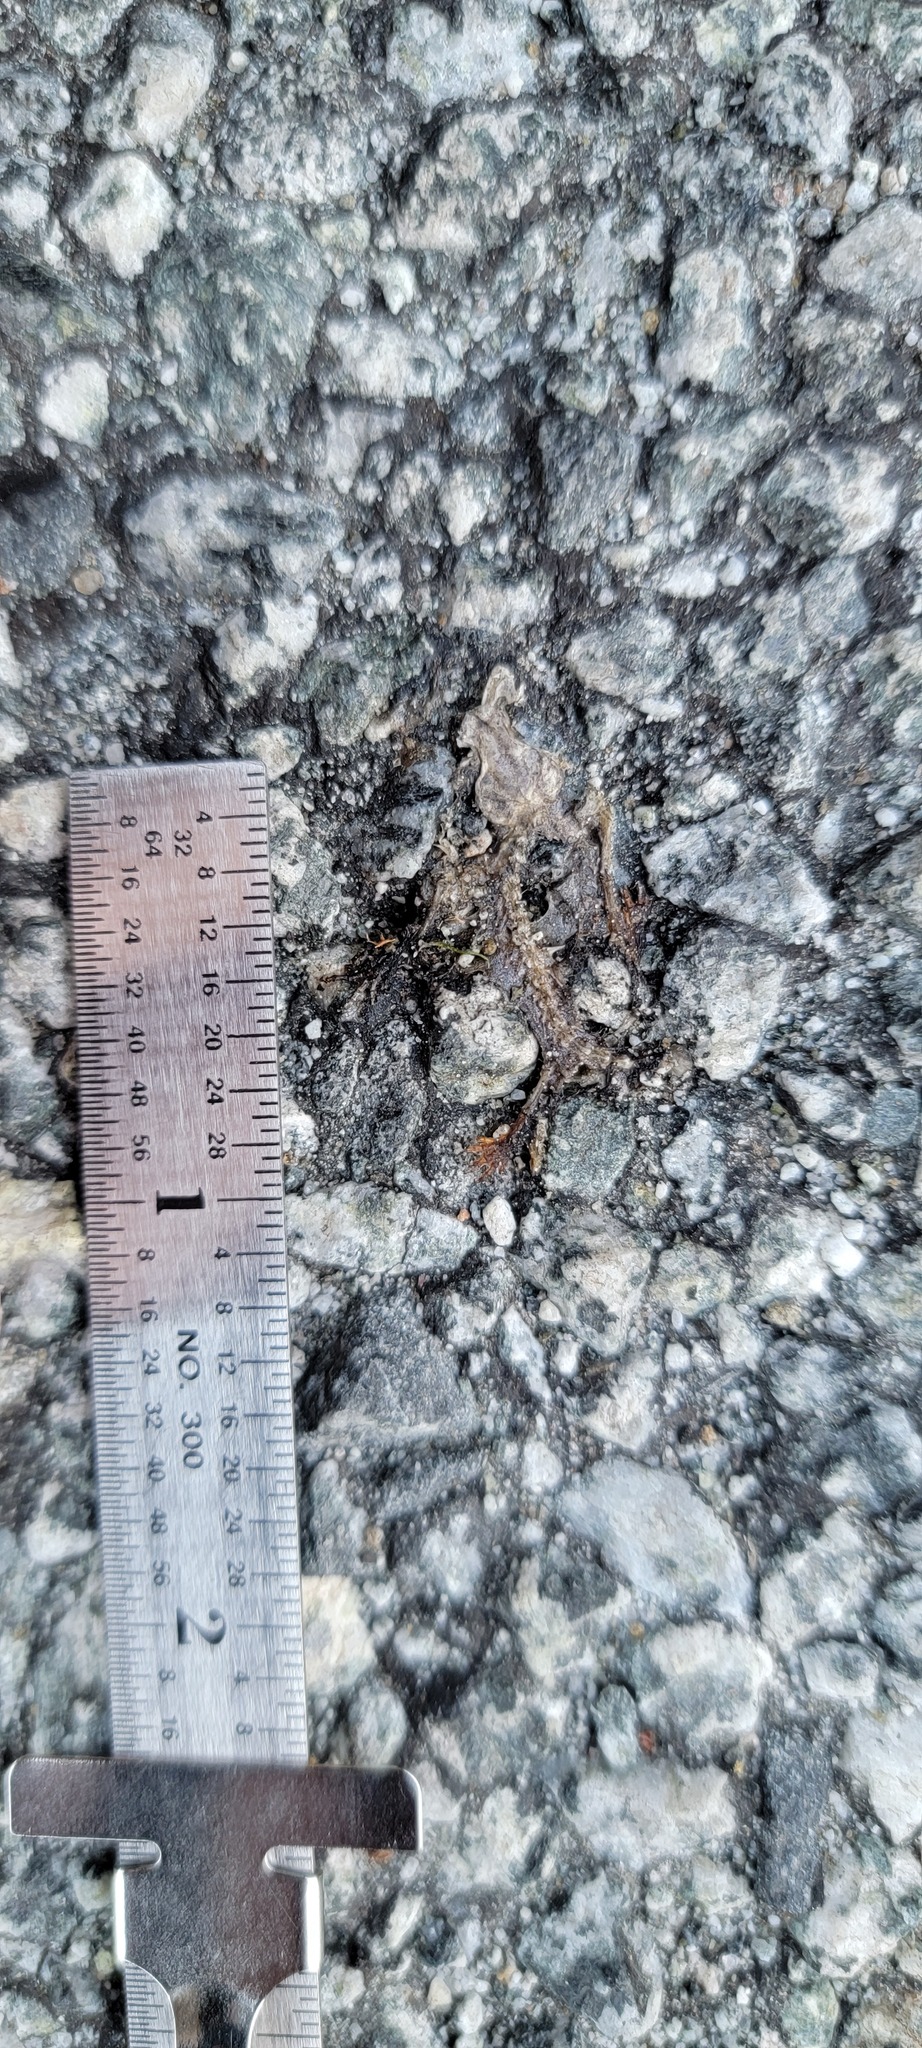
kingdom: Animalia
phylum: Chordata
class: Amphibia
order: Caudata
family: Salamandridae
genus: Taricha
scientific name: Taricha
